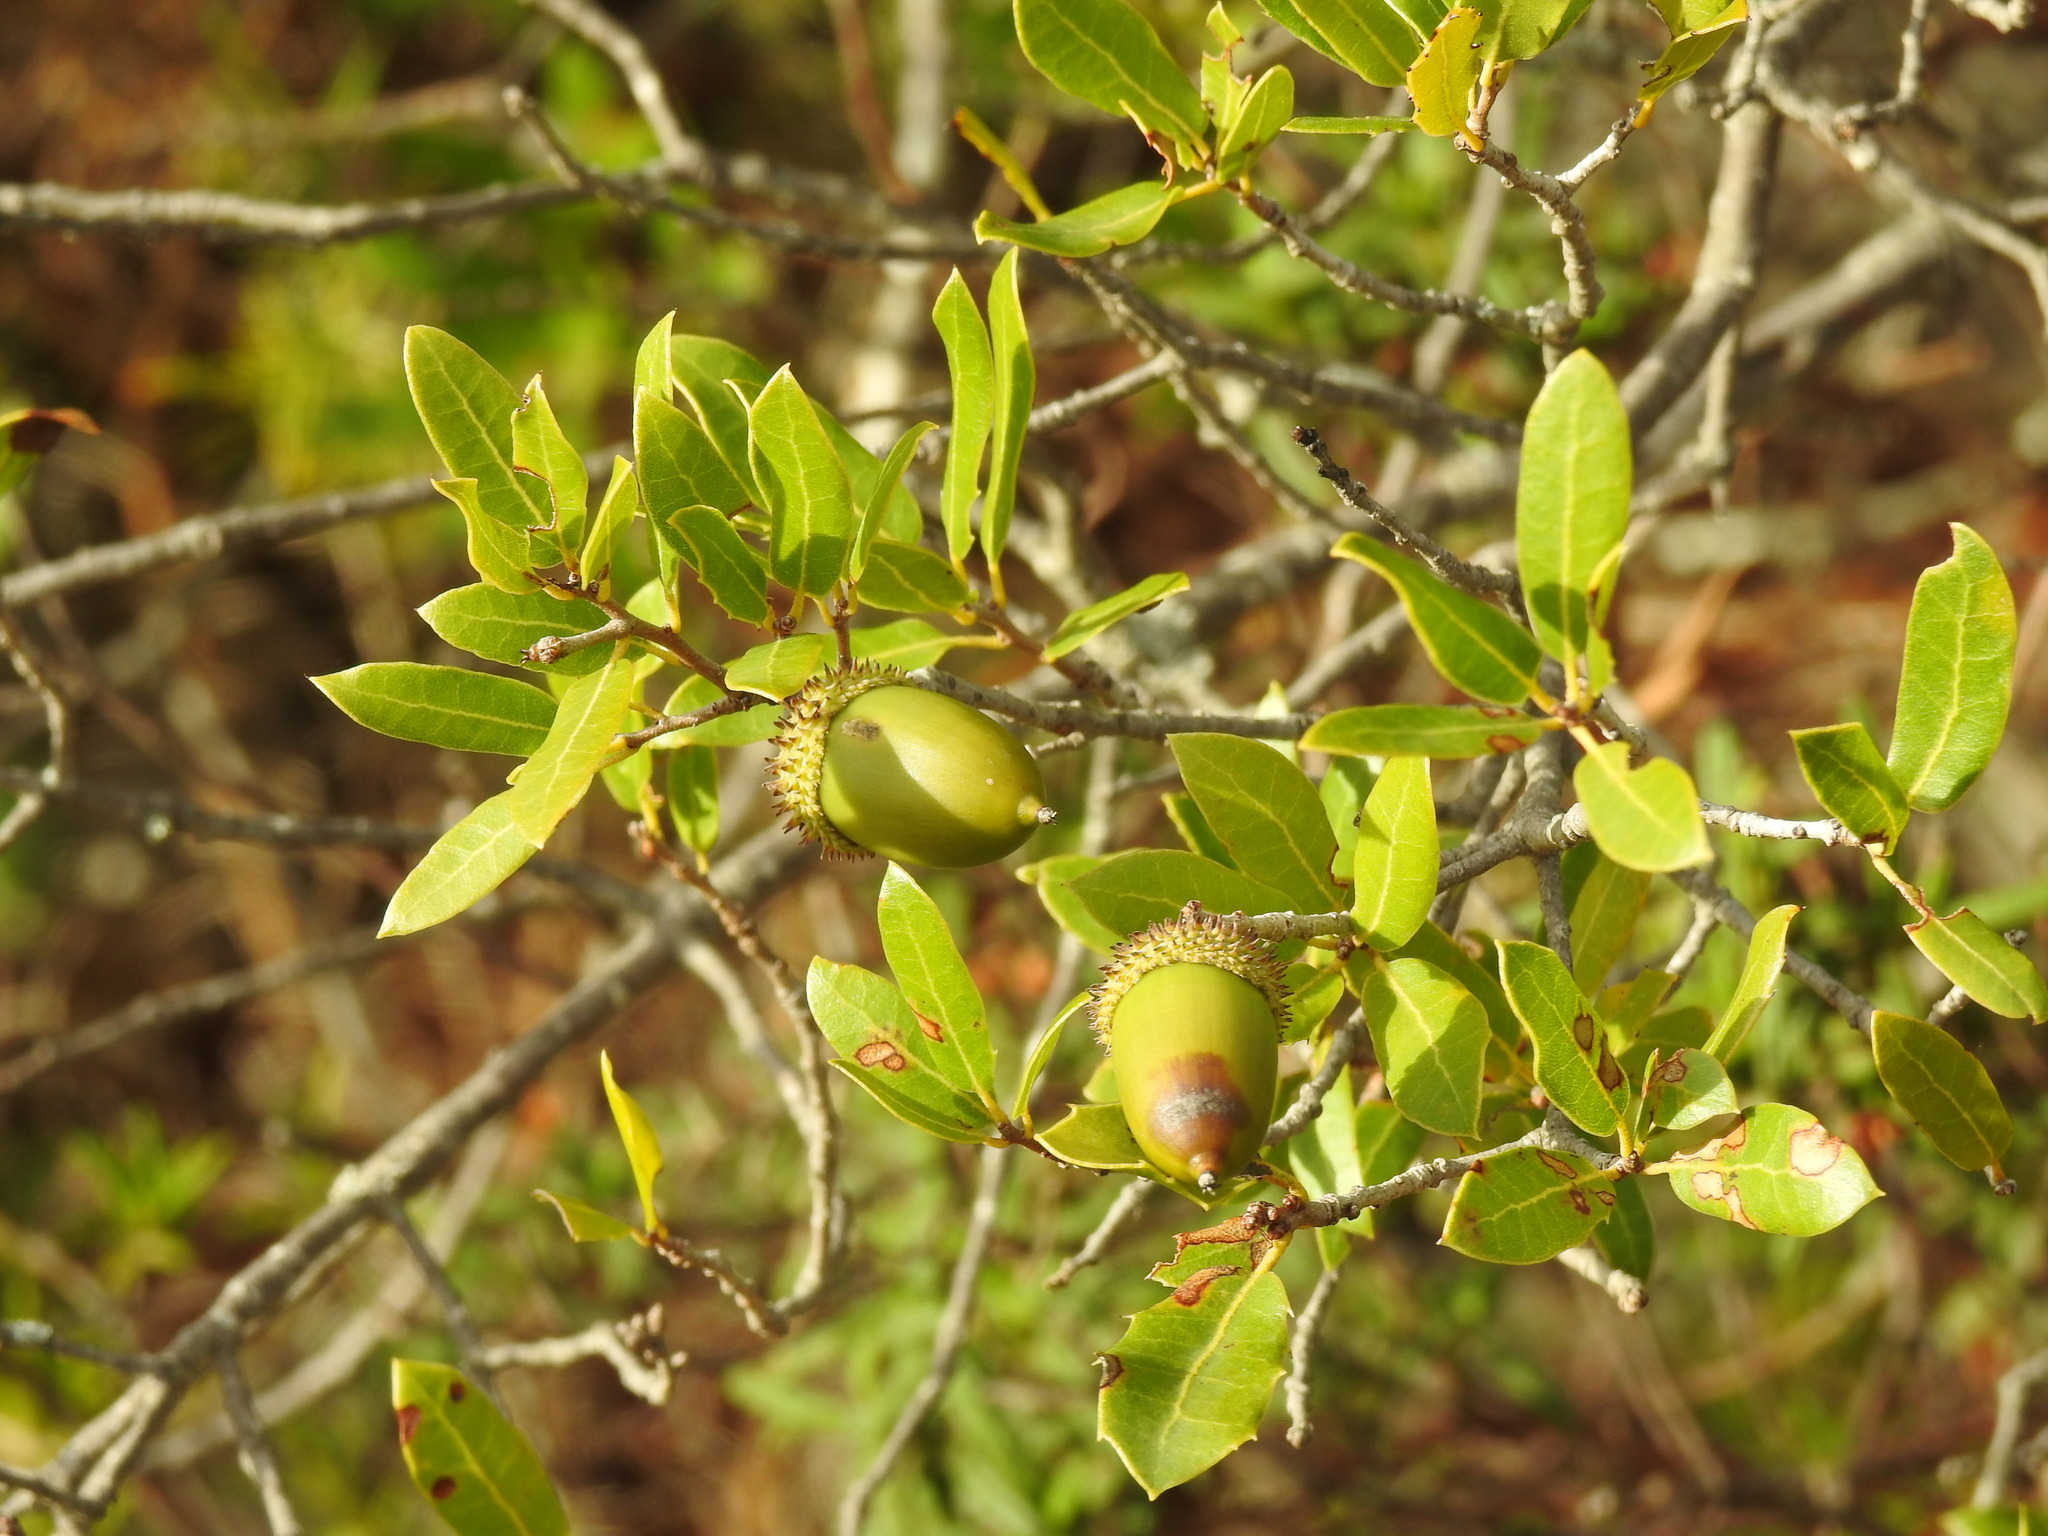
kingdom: Plantae
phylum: Tracheophyta
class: Magnoliopsida
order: Fagales
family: Fagaceae
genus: Quercus
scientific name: Quercus coccifera
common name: Kermes oak
